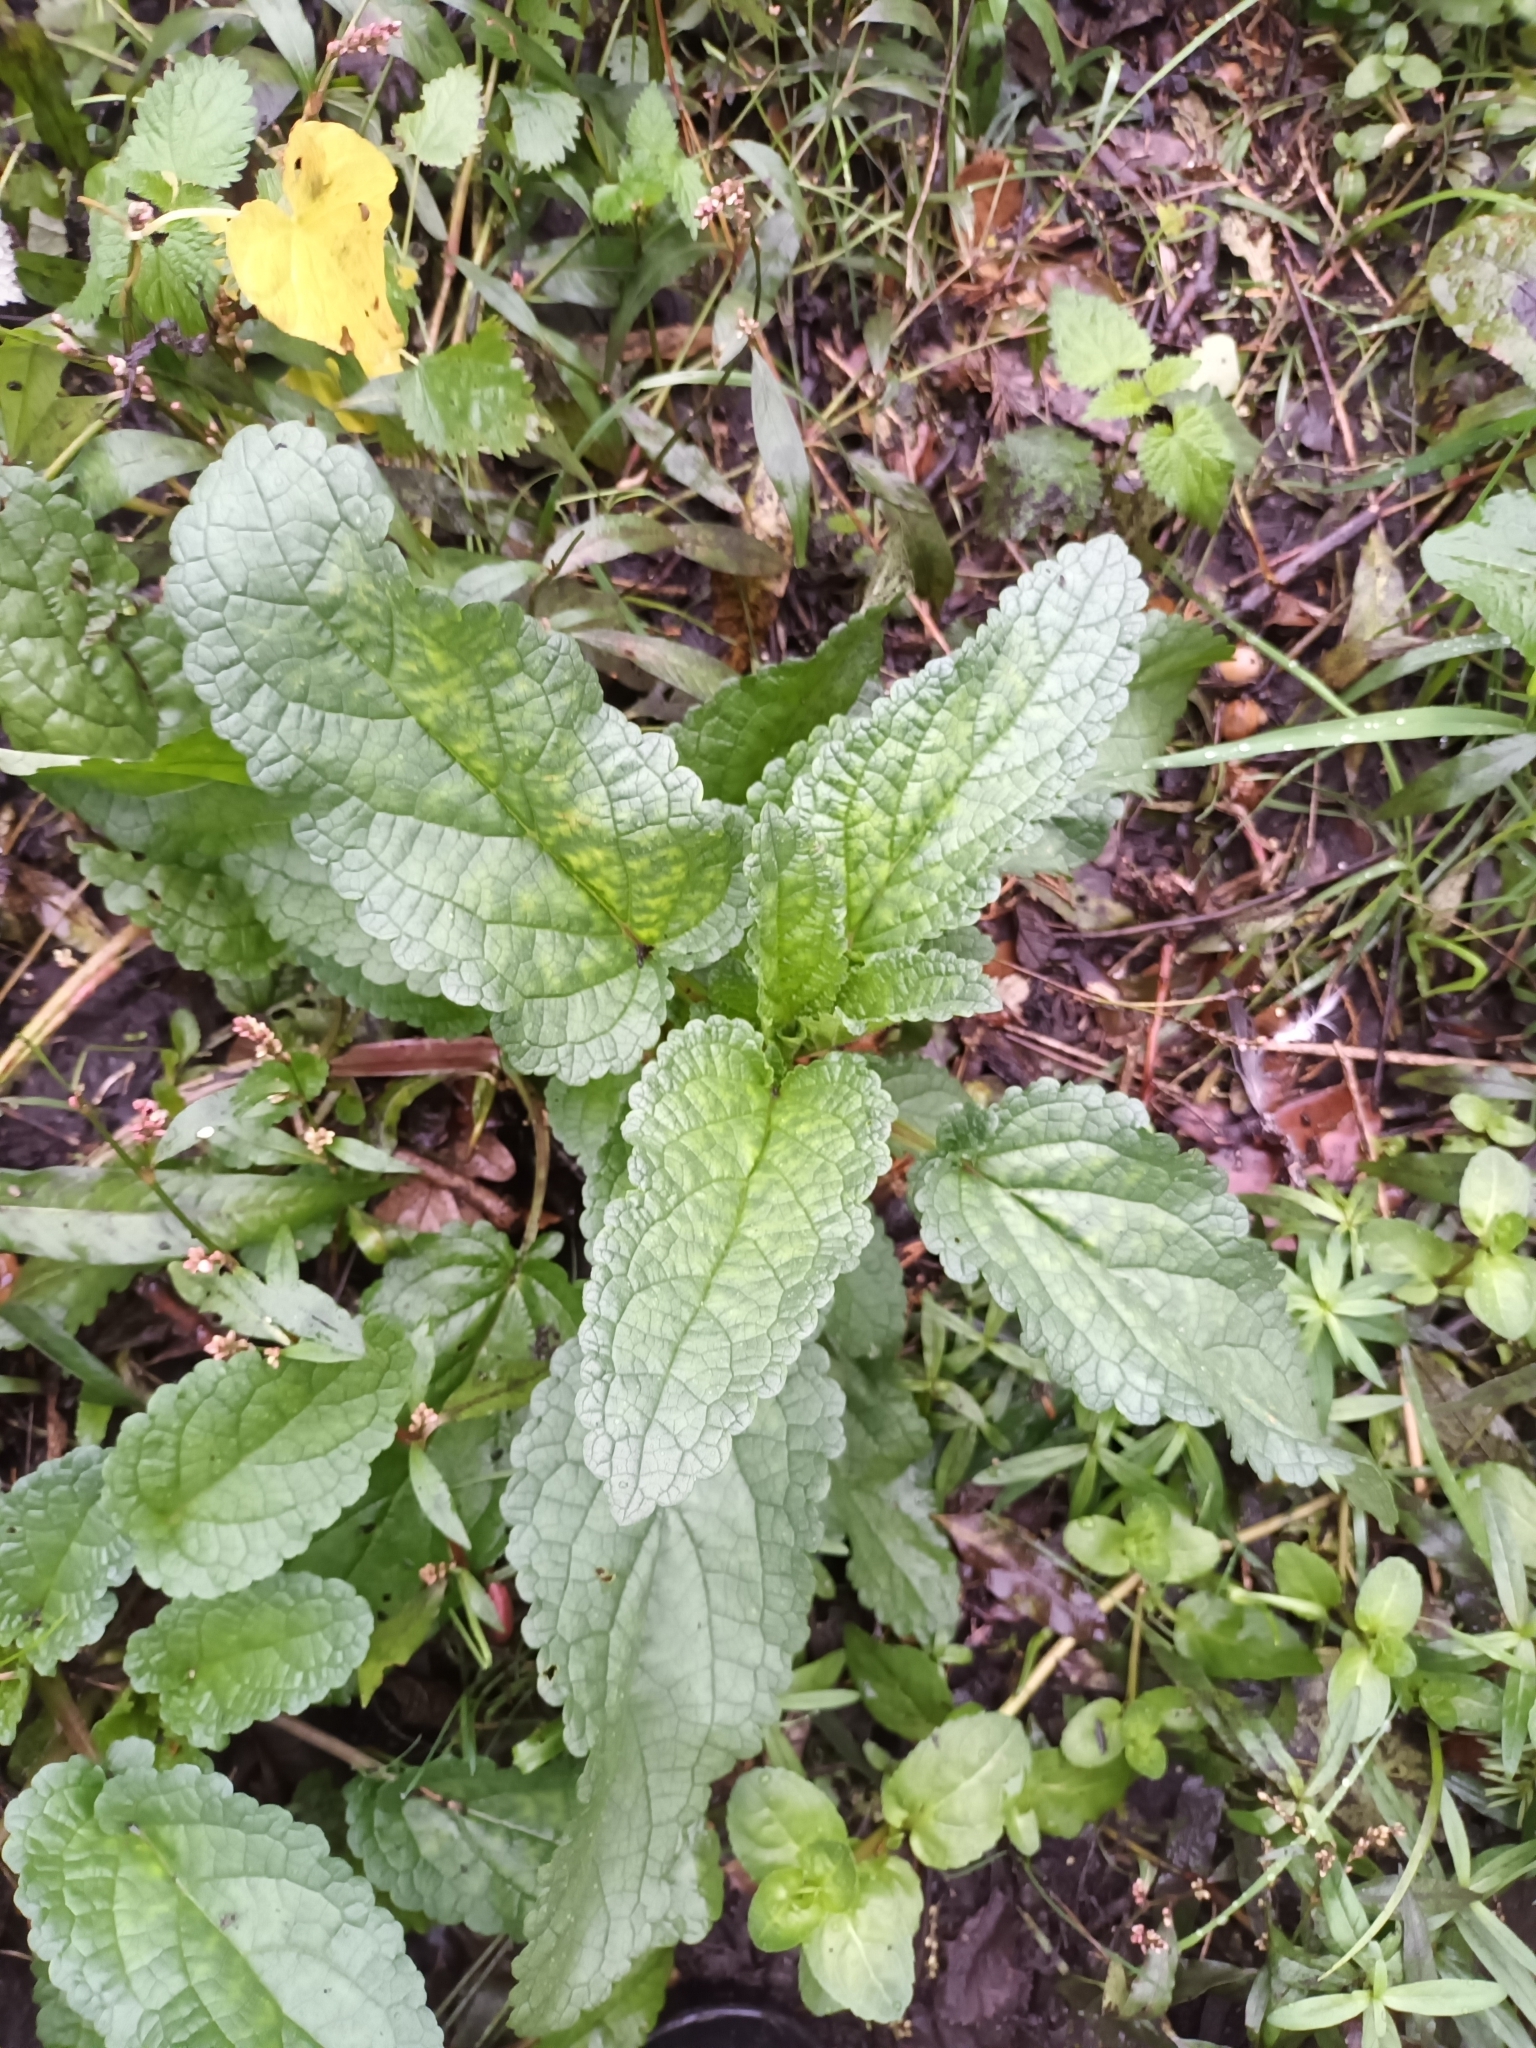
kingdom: Plantae
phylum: Tracheophyta
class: Magnoliopsida
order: Lamiales
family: Scrophulariaceae
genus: Scrophularia
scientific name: Scrophularia auriculata
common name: Water betony
